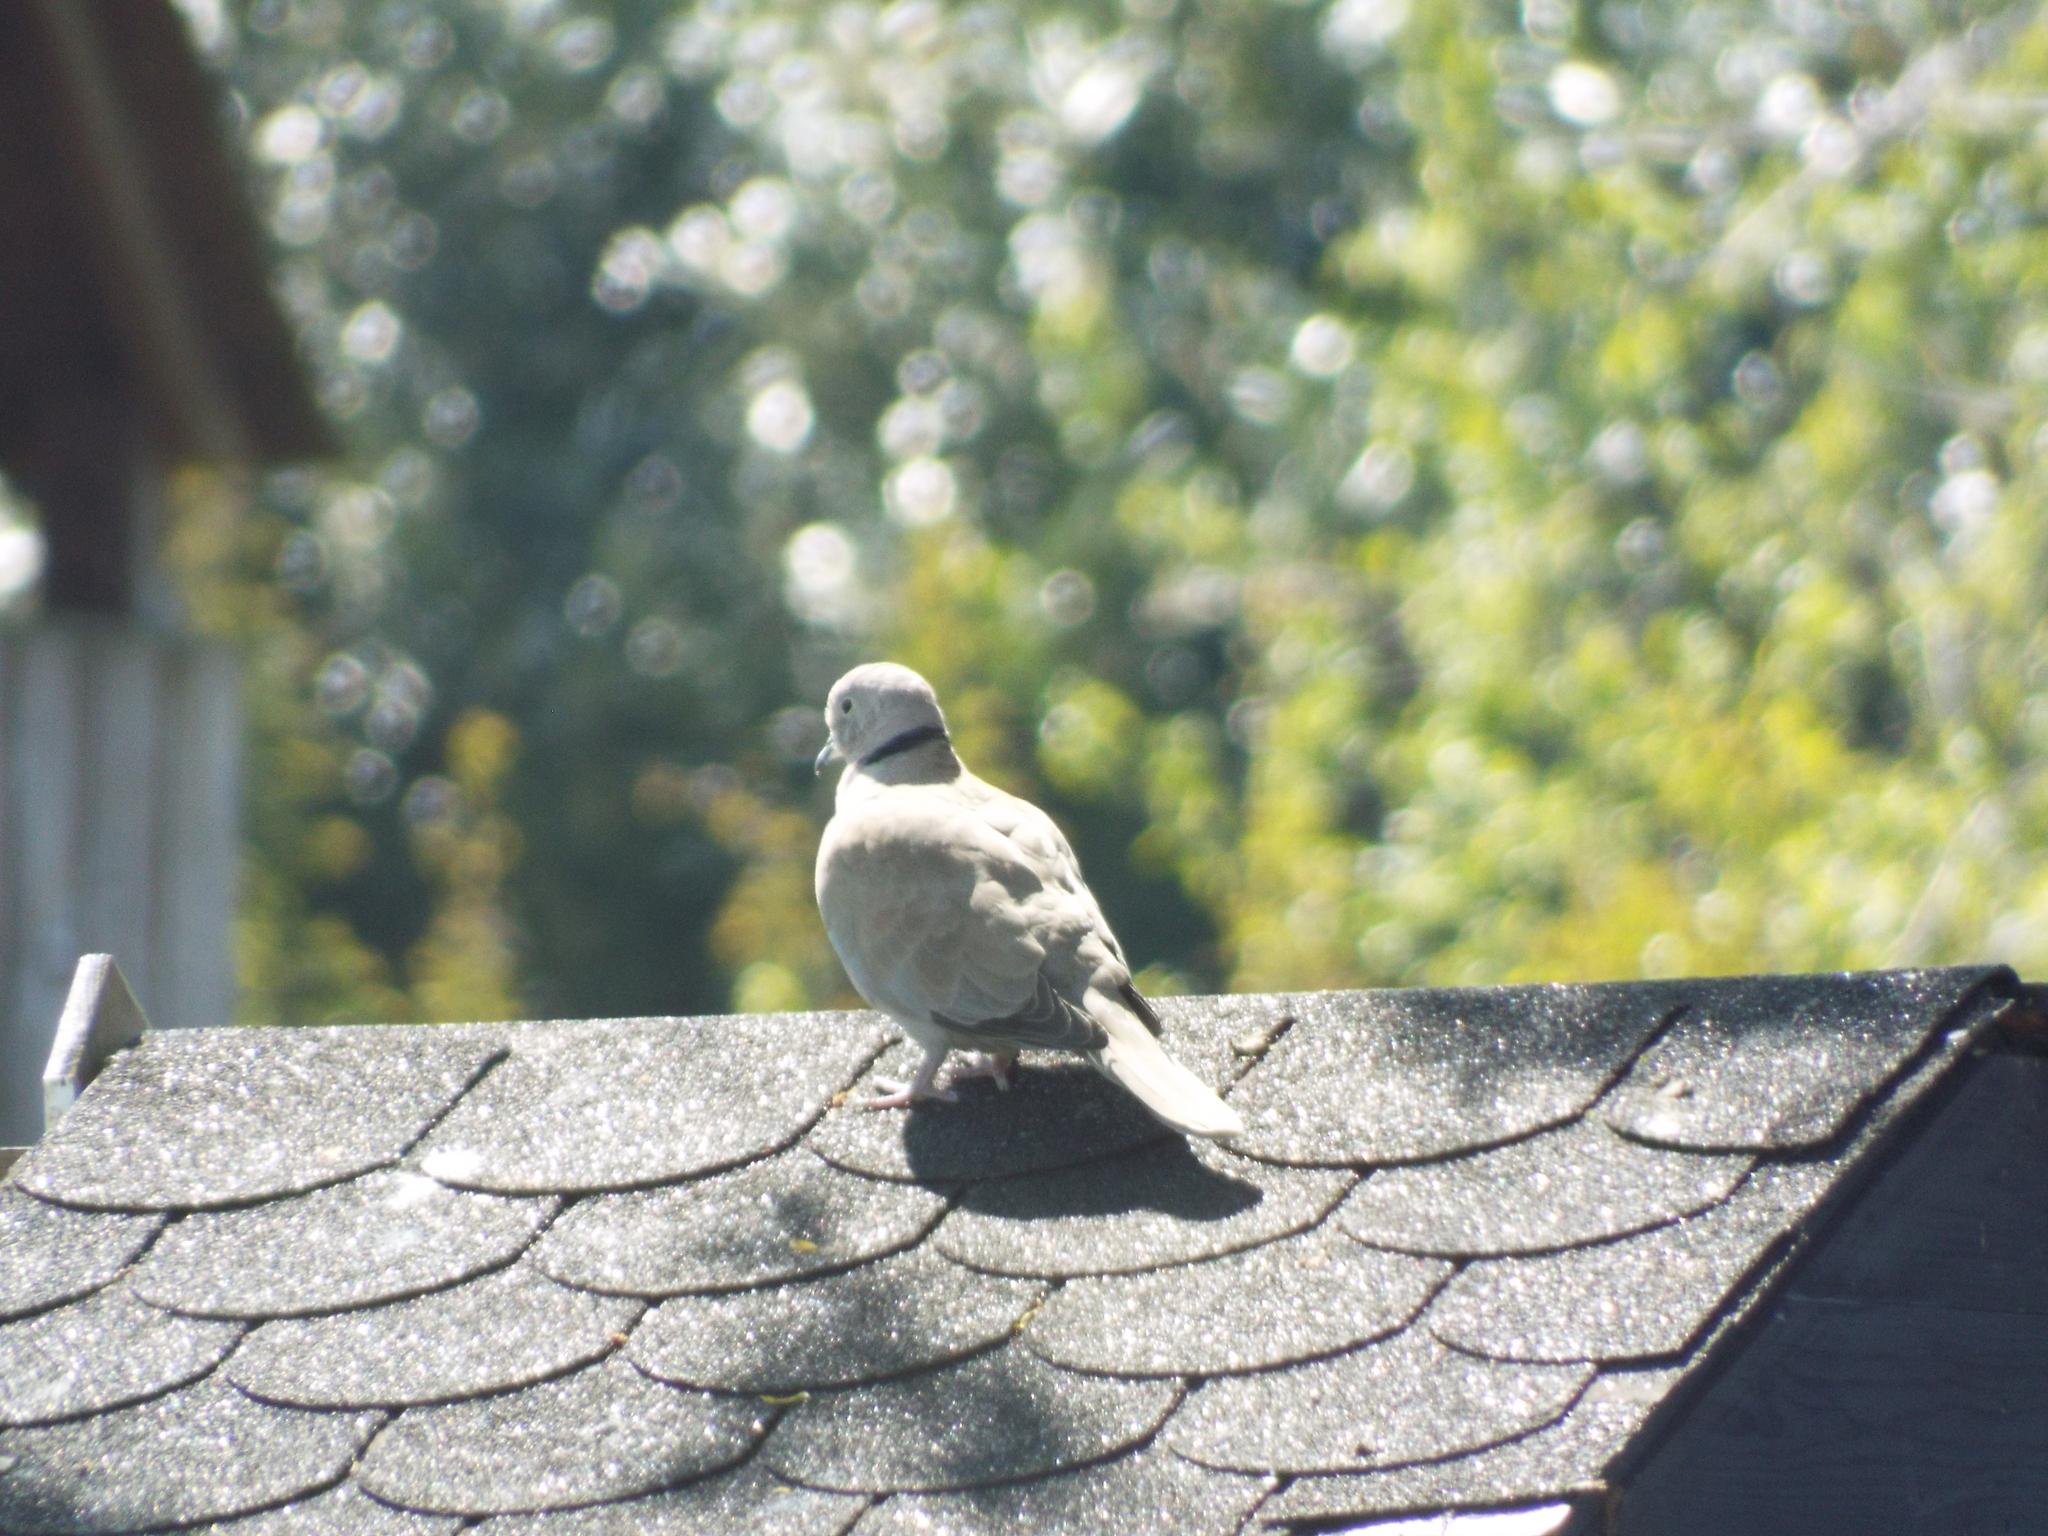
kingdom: Animalia
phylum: Chordata
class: Aves
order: Columbiformes
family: Columbidae
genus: Streptopelia
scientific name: Streptopelia decaocto
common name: Eurasian collared dove
